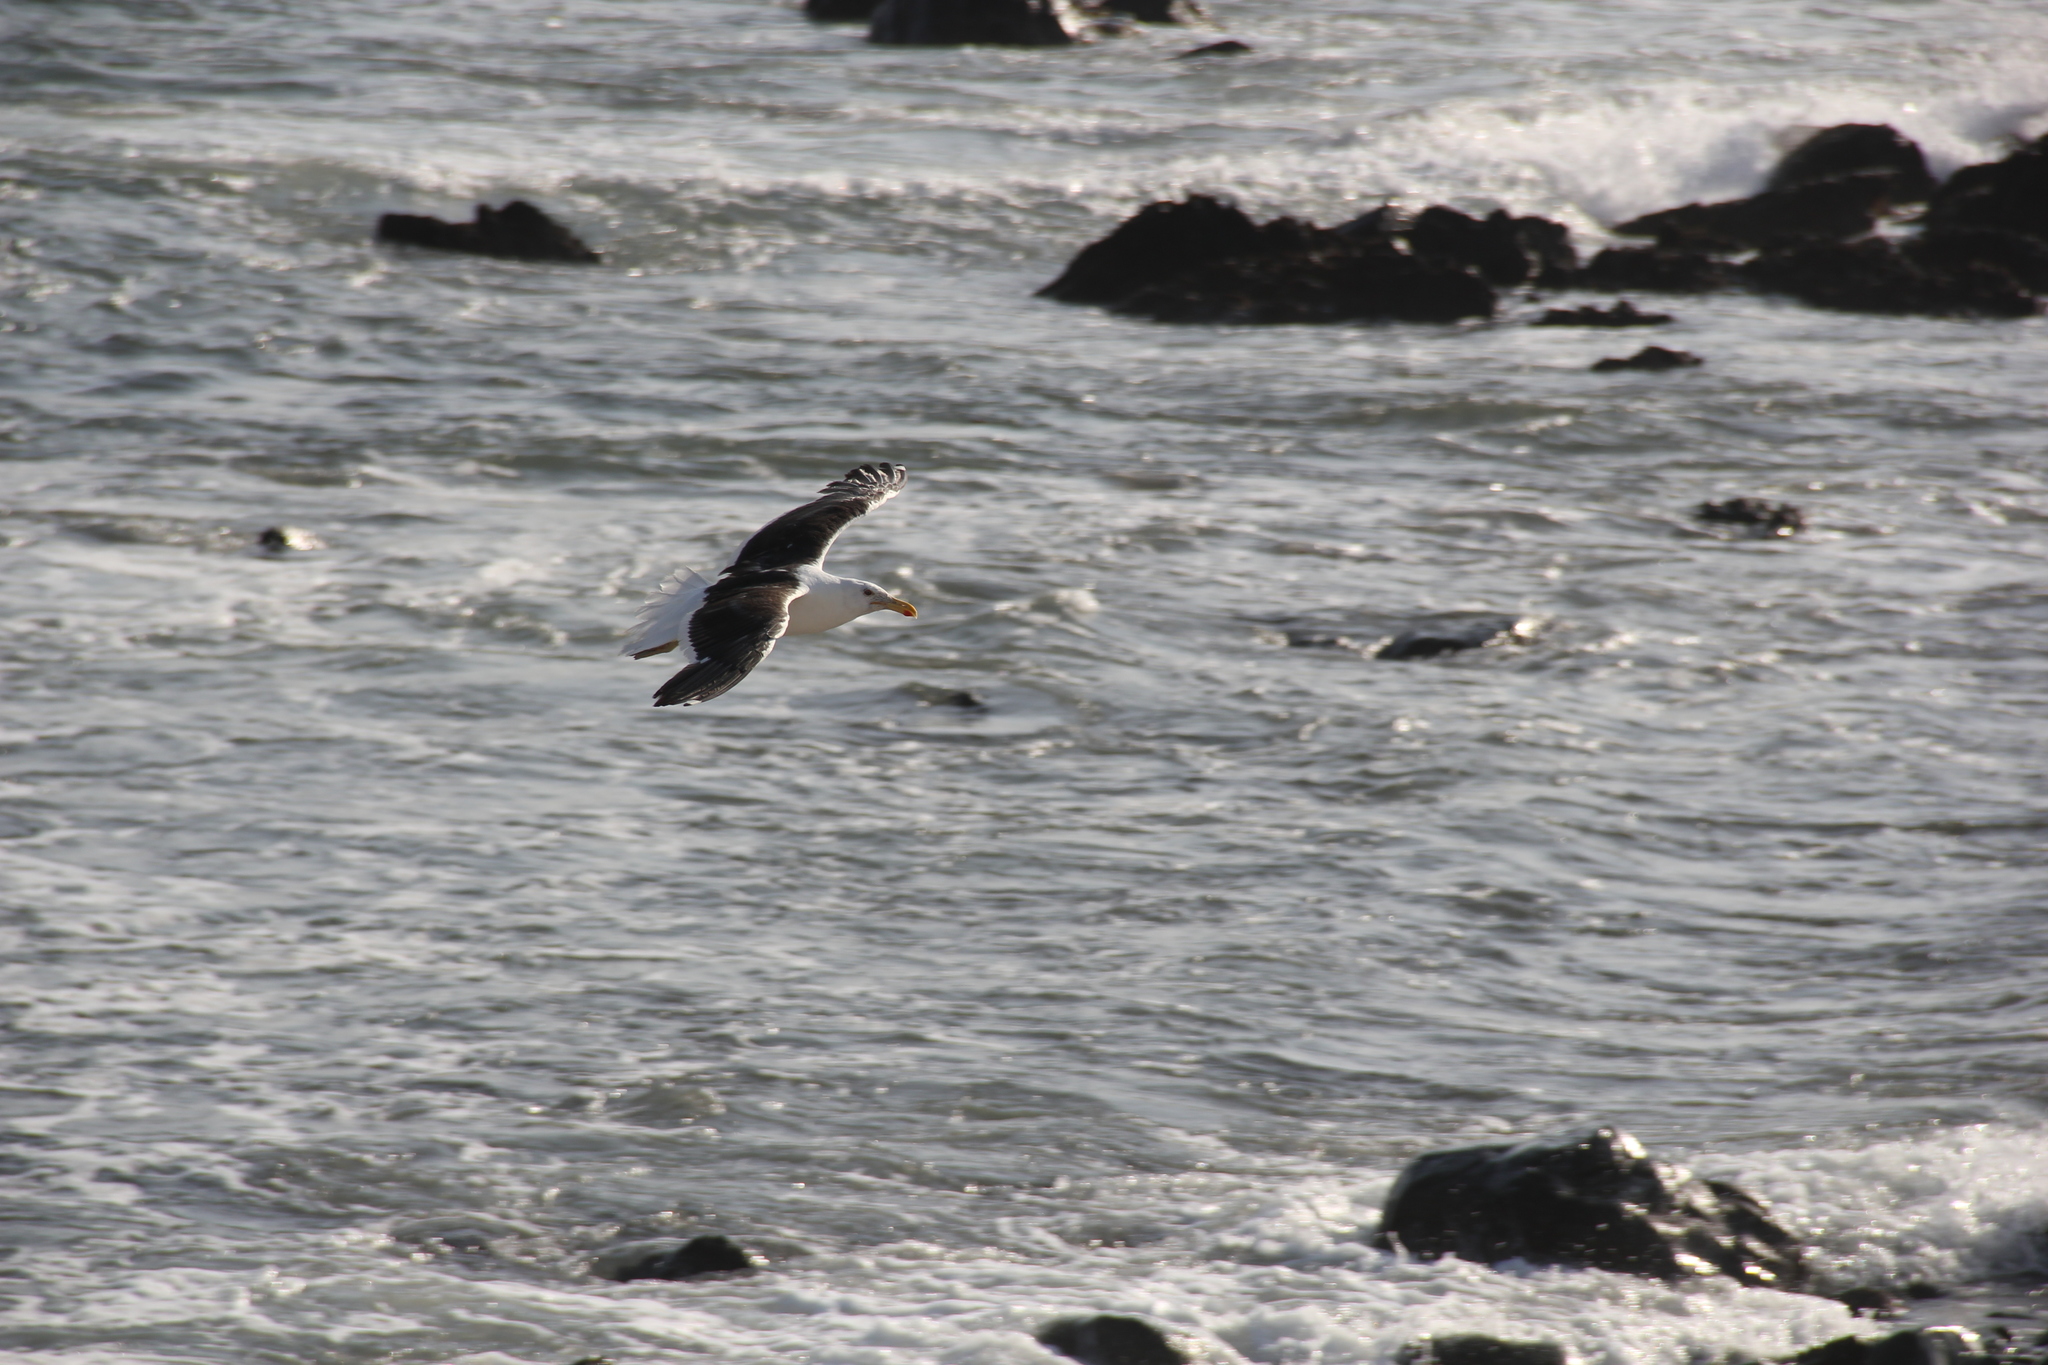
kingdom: Animalia
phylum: Chordata
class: Aves
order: Charadriiformes
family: Laridae
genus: Larus
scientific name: Larus dominicanus
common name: Kelp gull
